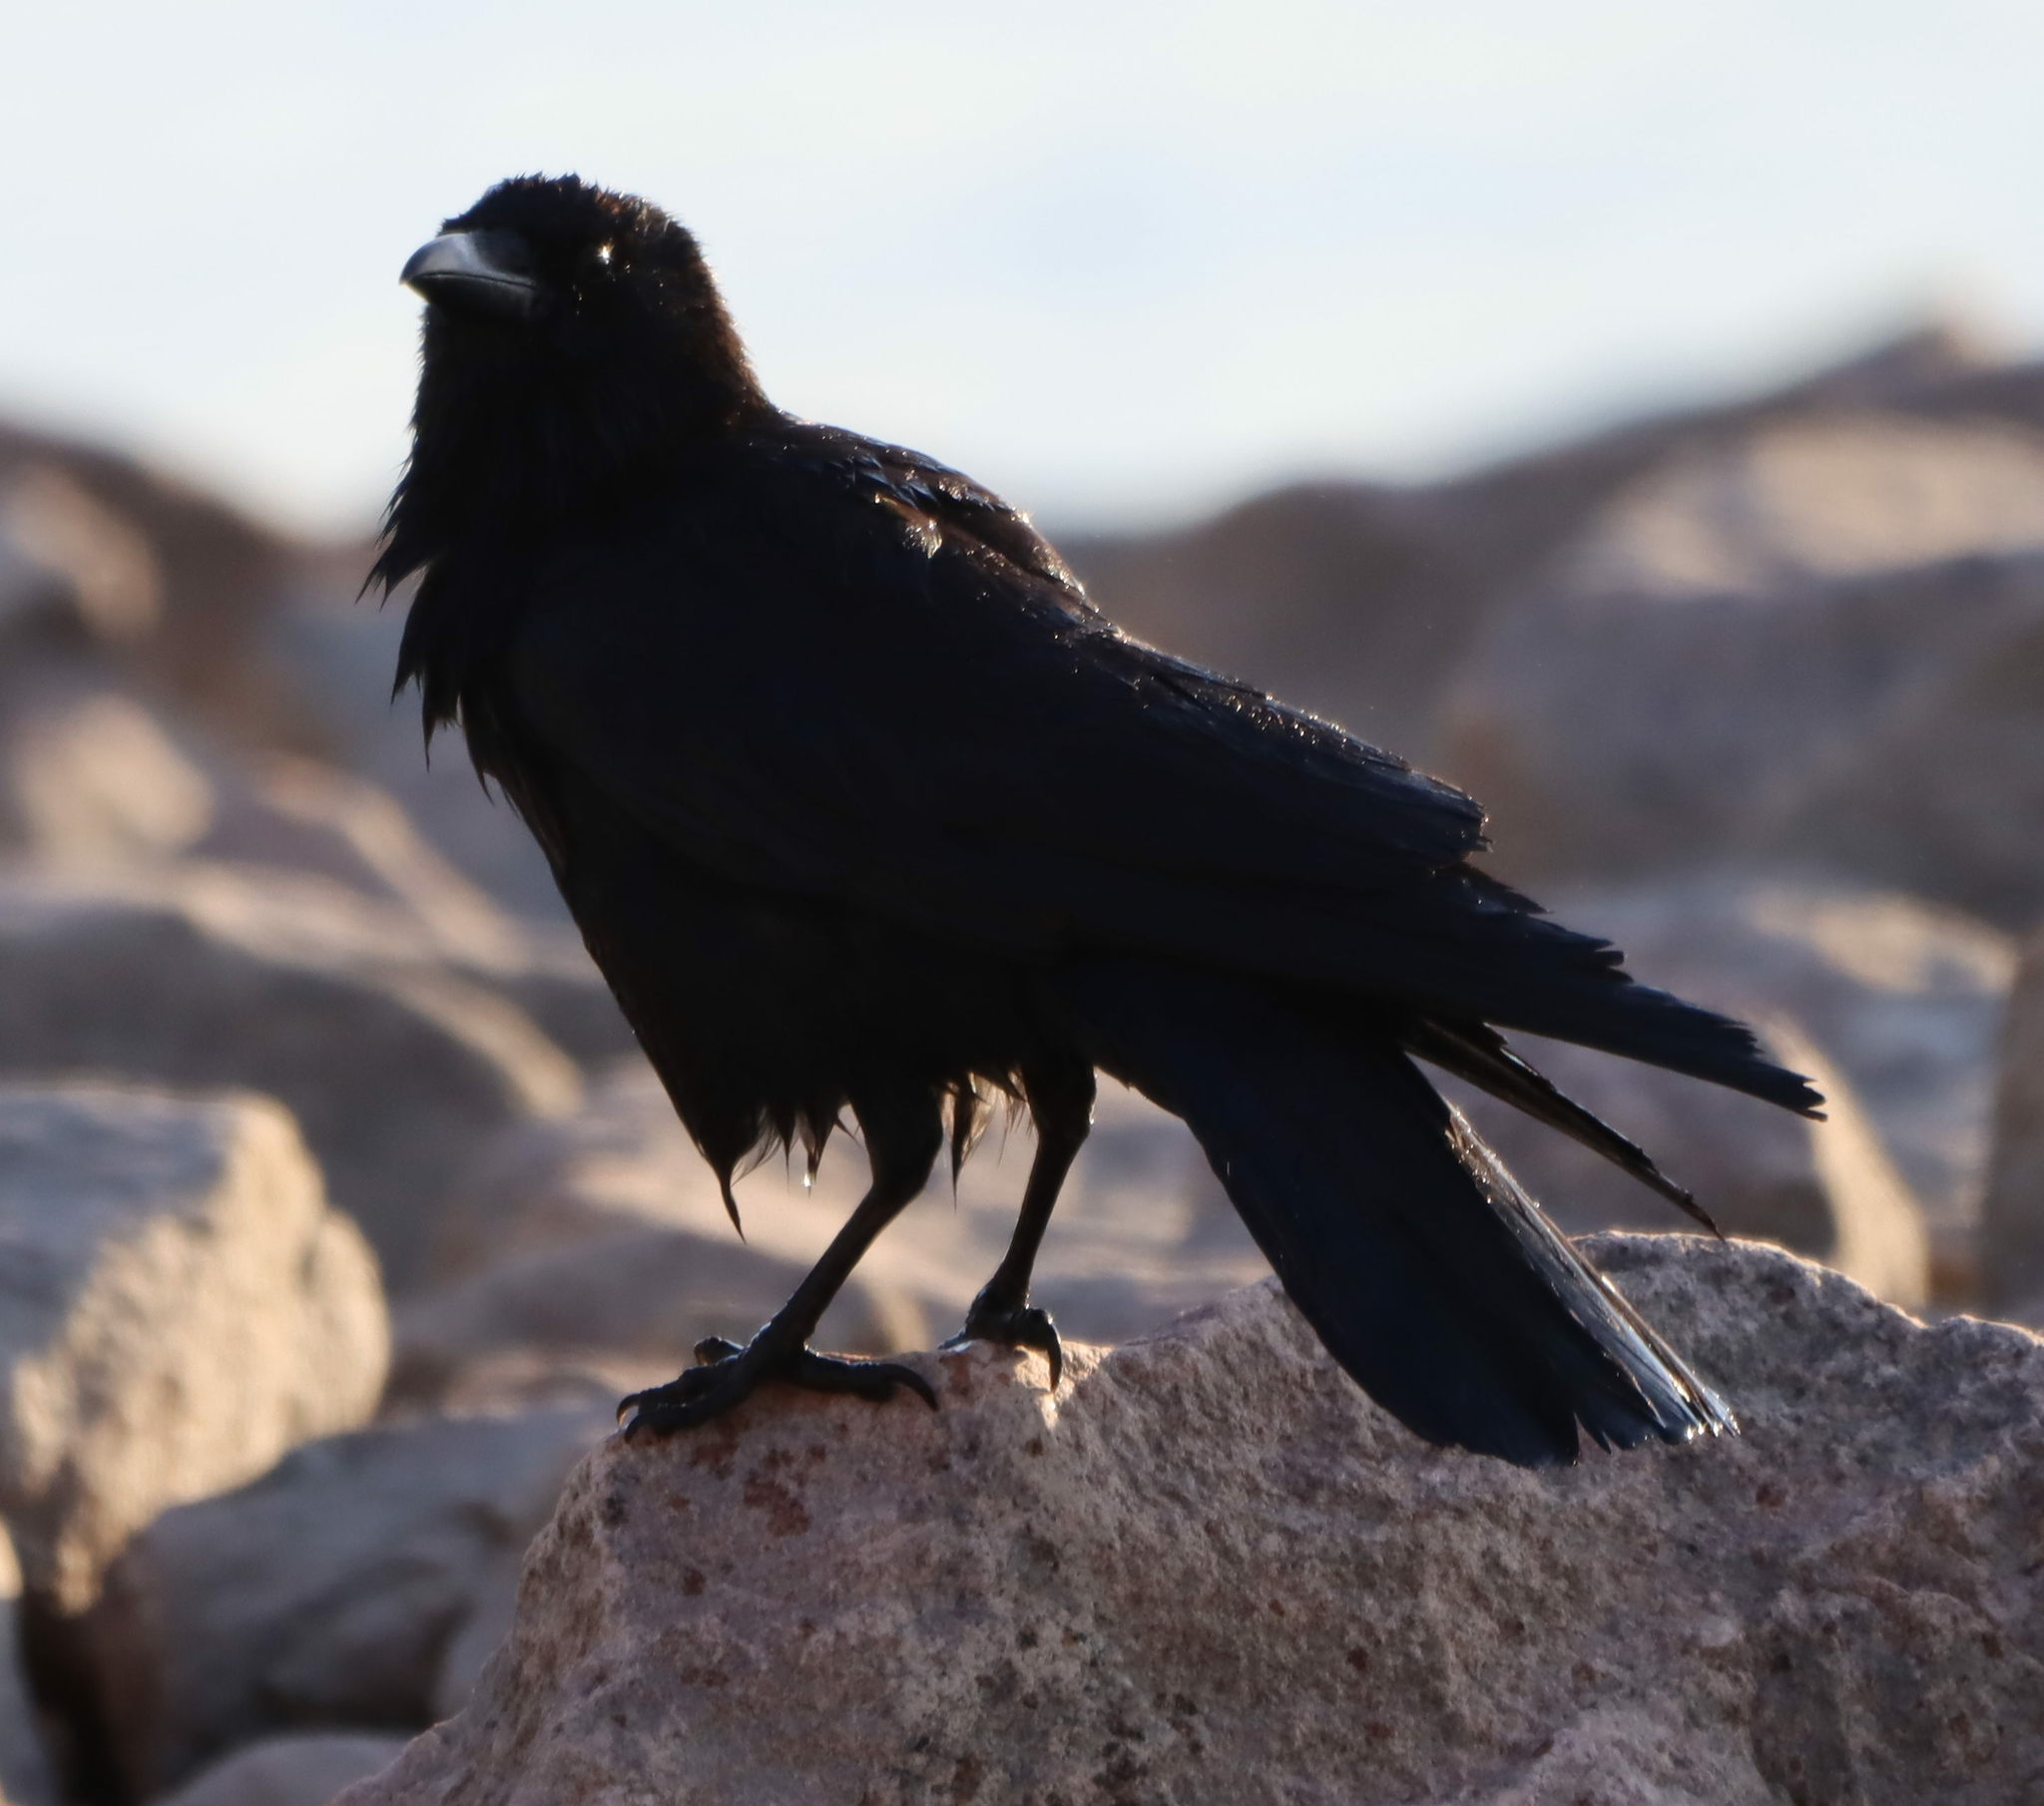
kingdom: Animalia
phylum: Chordata
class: Aves
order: Passeriformes
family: Corvidae
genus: Corvus
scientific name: Corvus brachyrhynchos
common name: American crow
